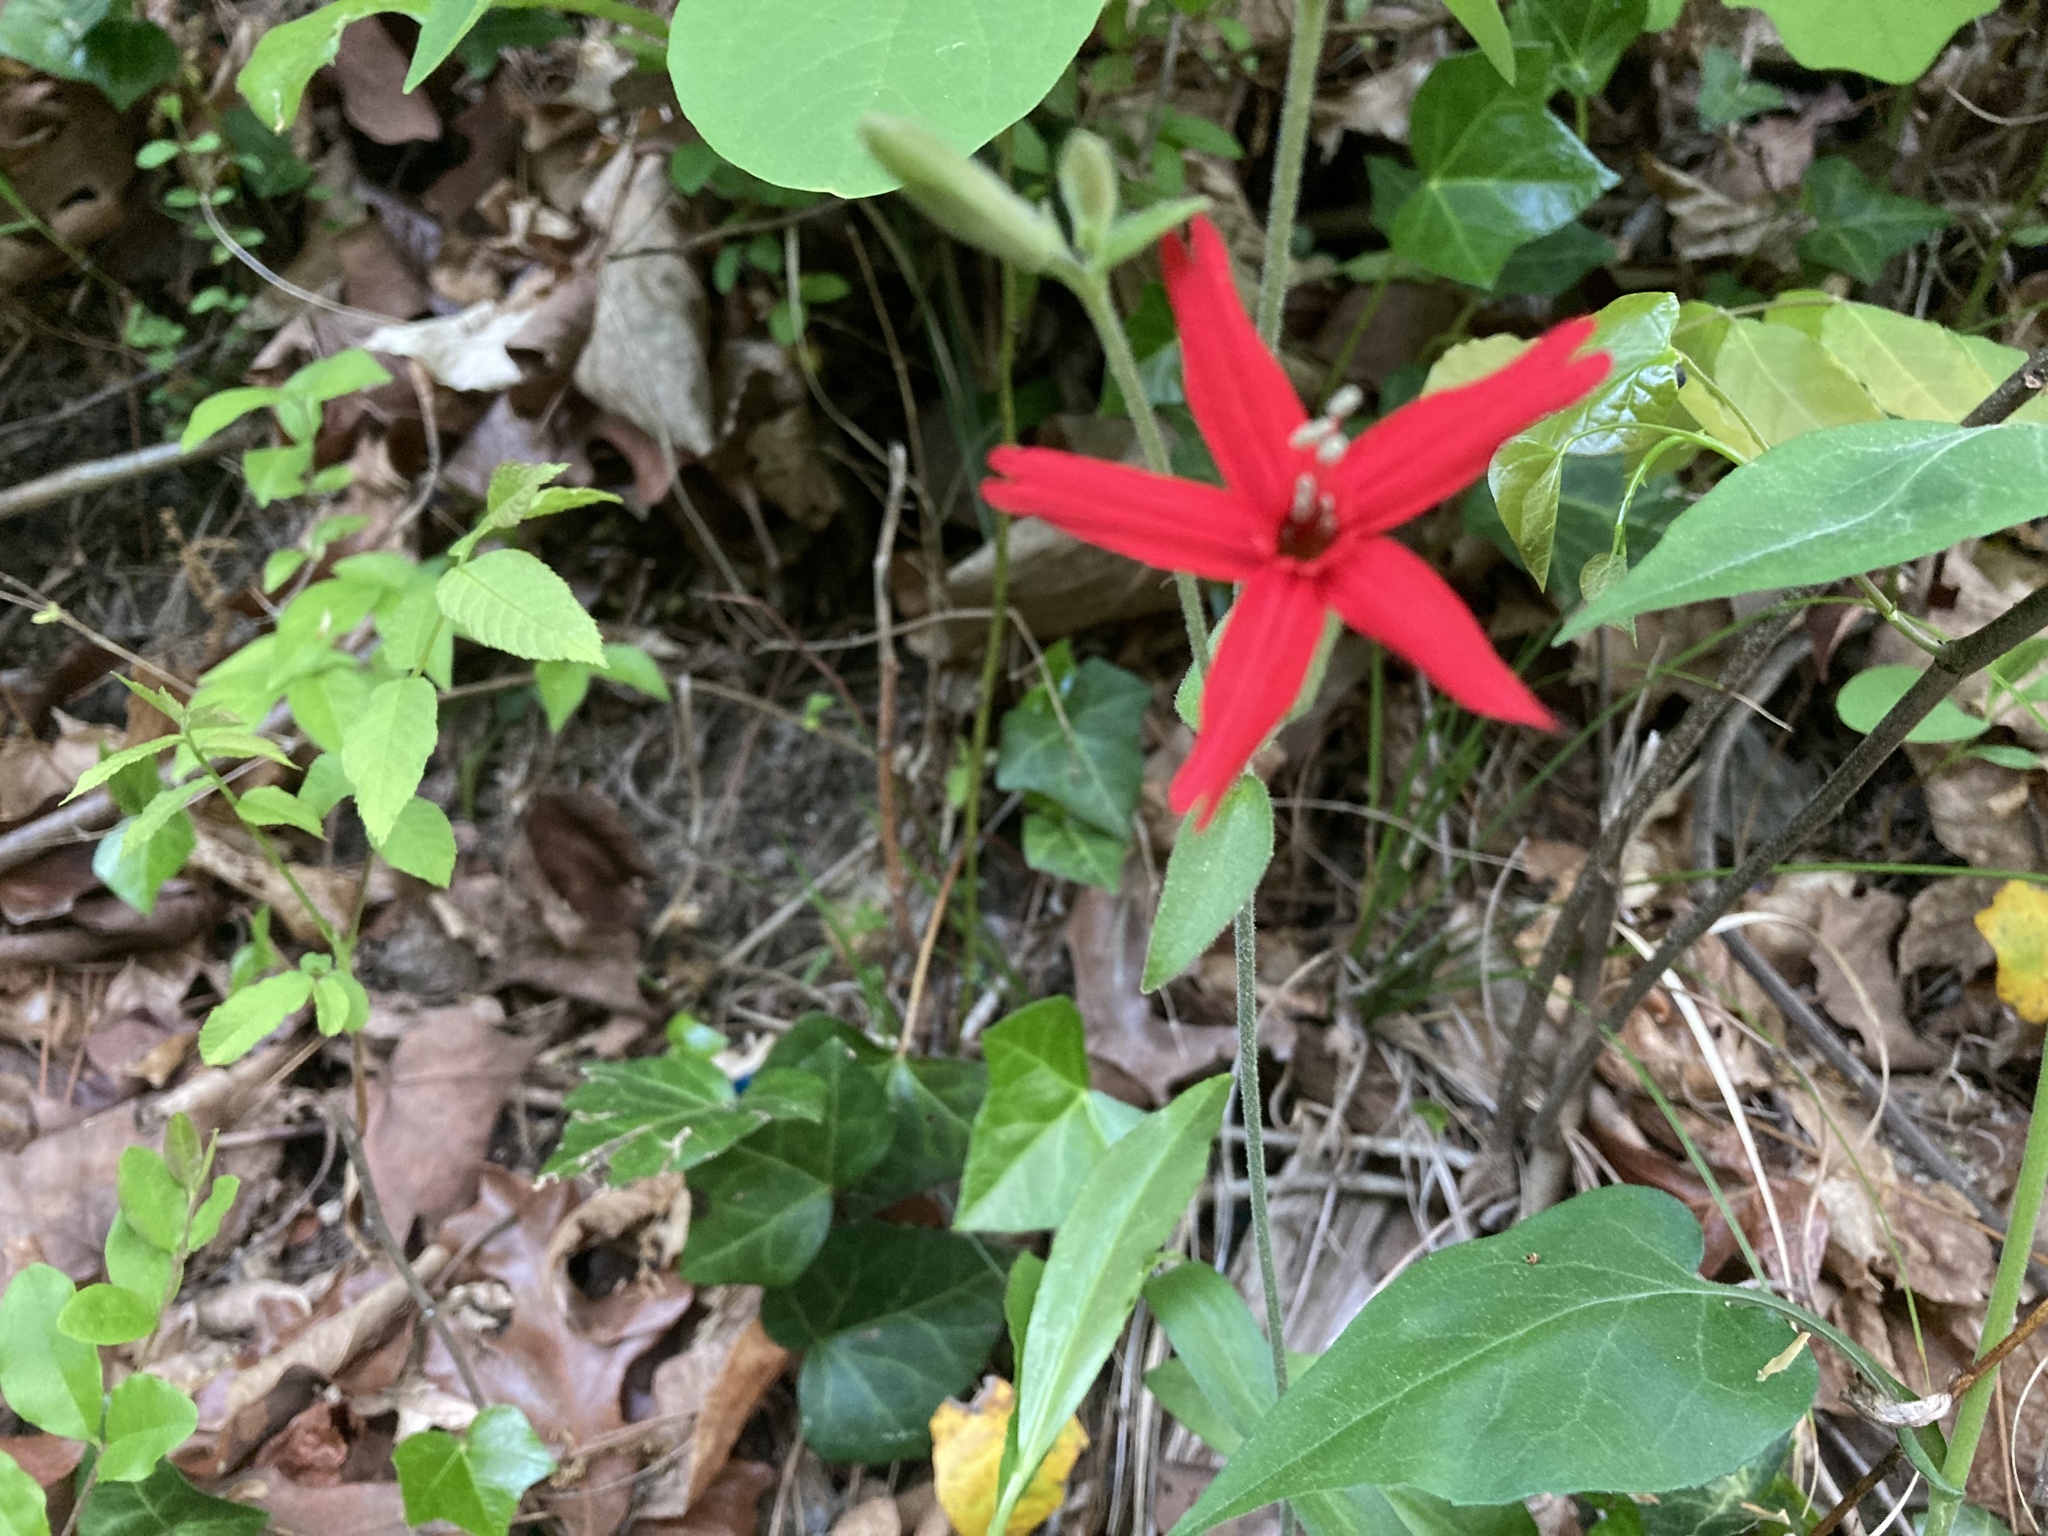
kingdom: Plantae
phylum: Tracheophyta
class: Magnoliopsida
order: Caryophyllales
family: Caryophyllaceae
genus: Silene
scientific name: Silene virginica
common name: Fire-pink
